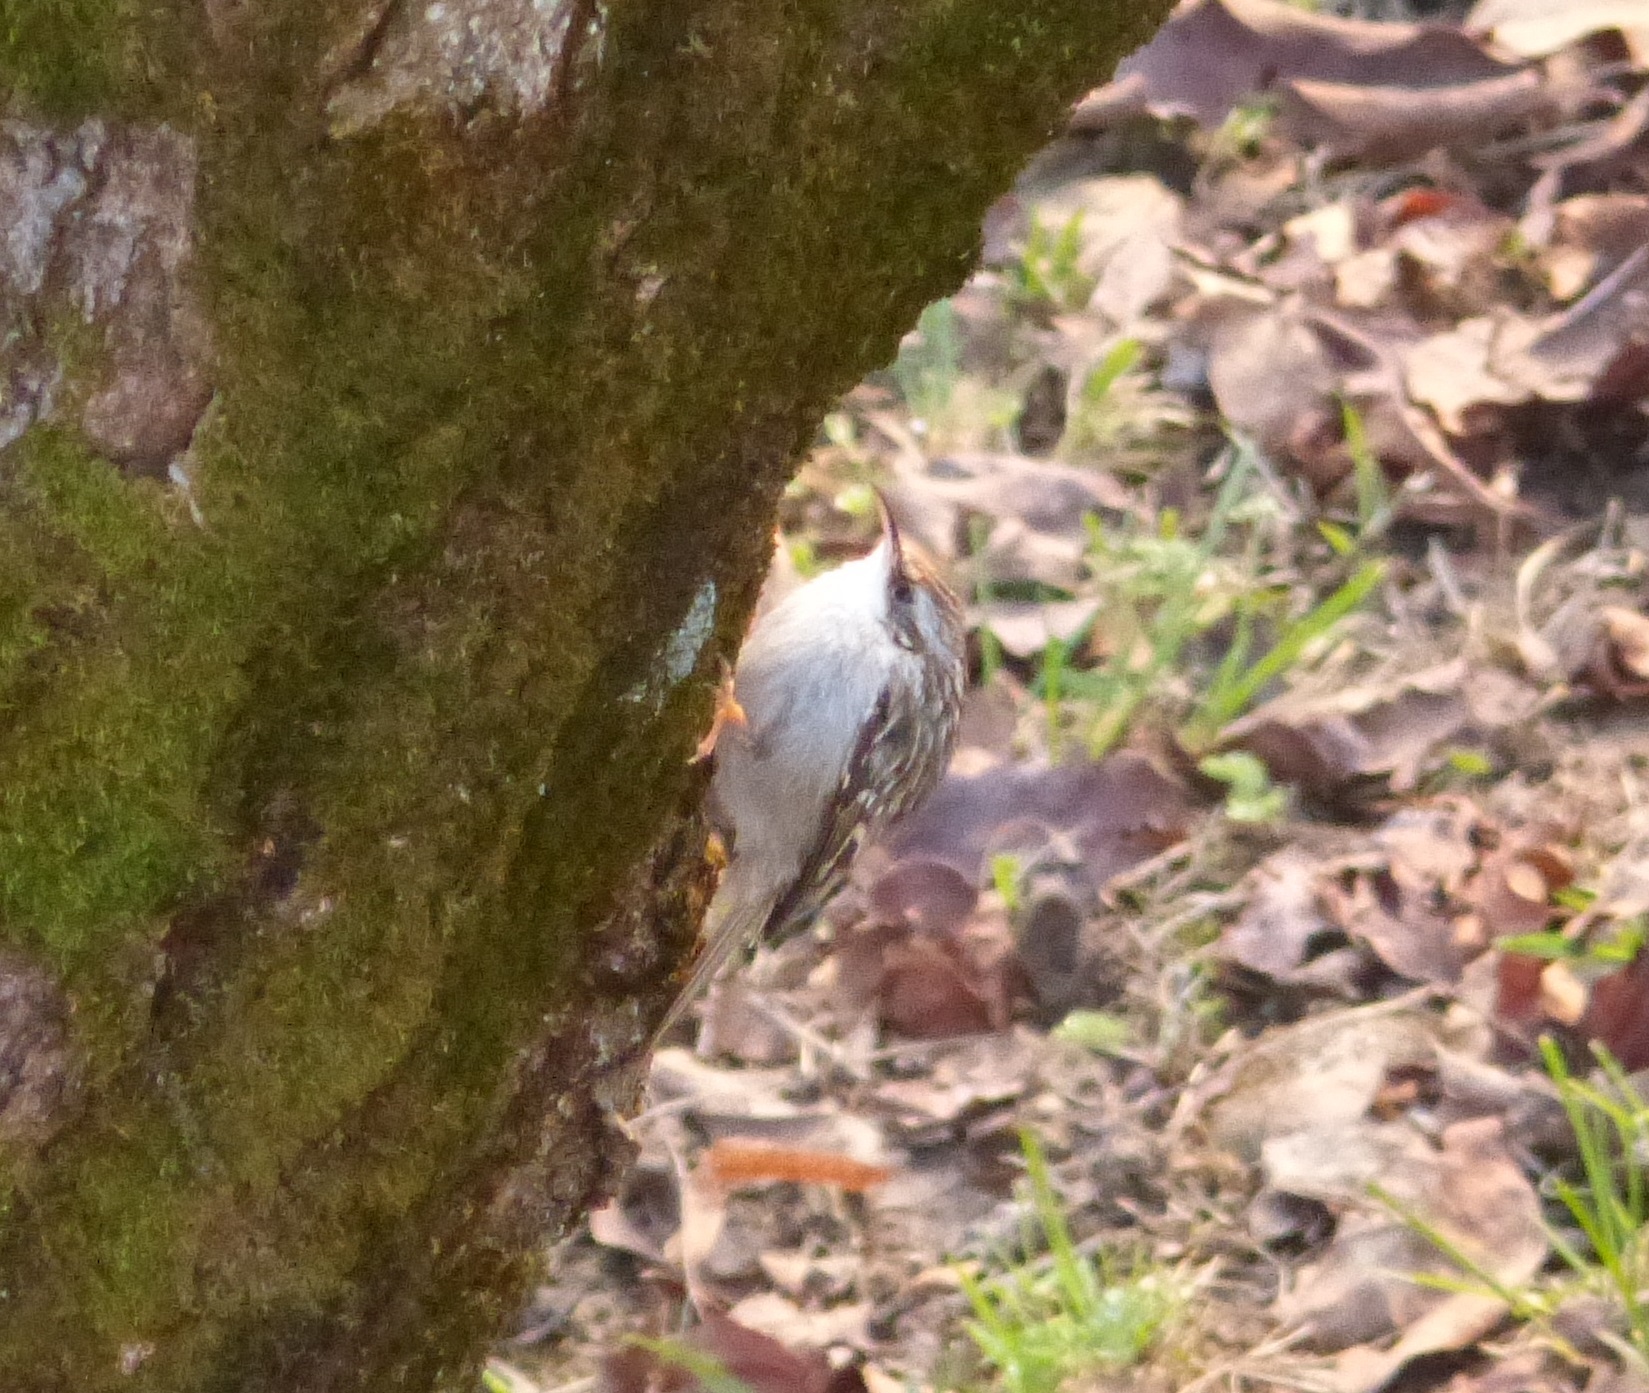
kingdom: Animalia
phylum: Chordata
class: Aves
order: Passeriformes
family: Certhiidae
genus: Certhia
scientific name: Certhia brachydactyla
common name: Short-toed treecreeper
